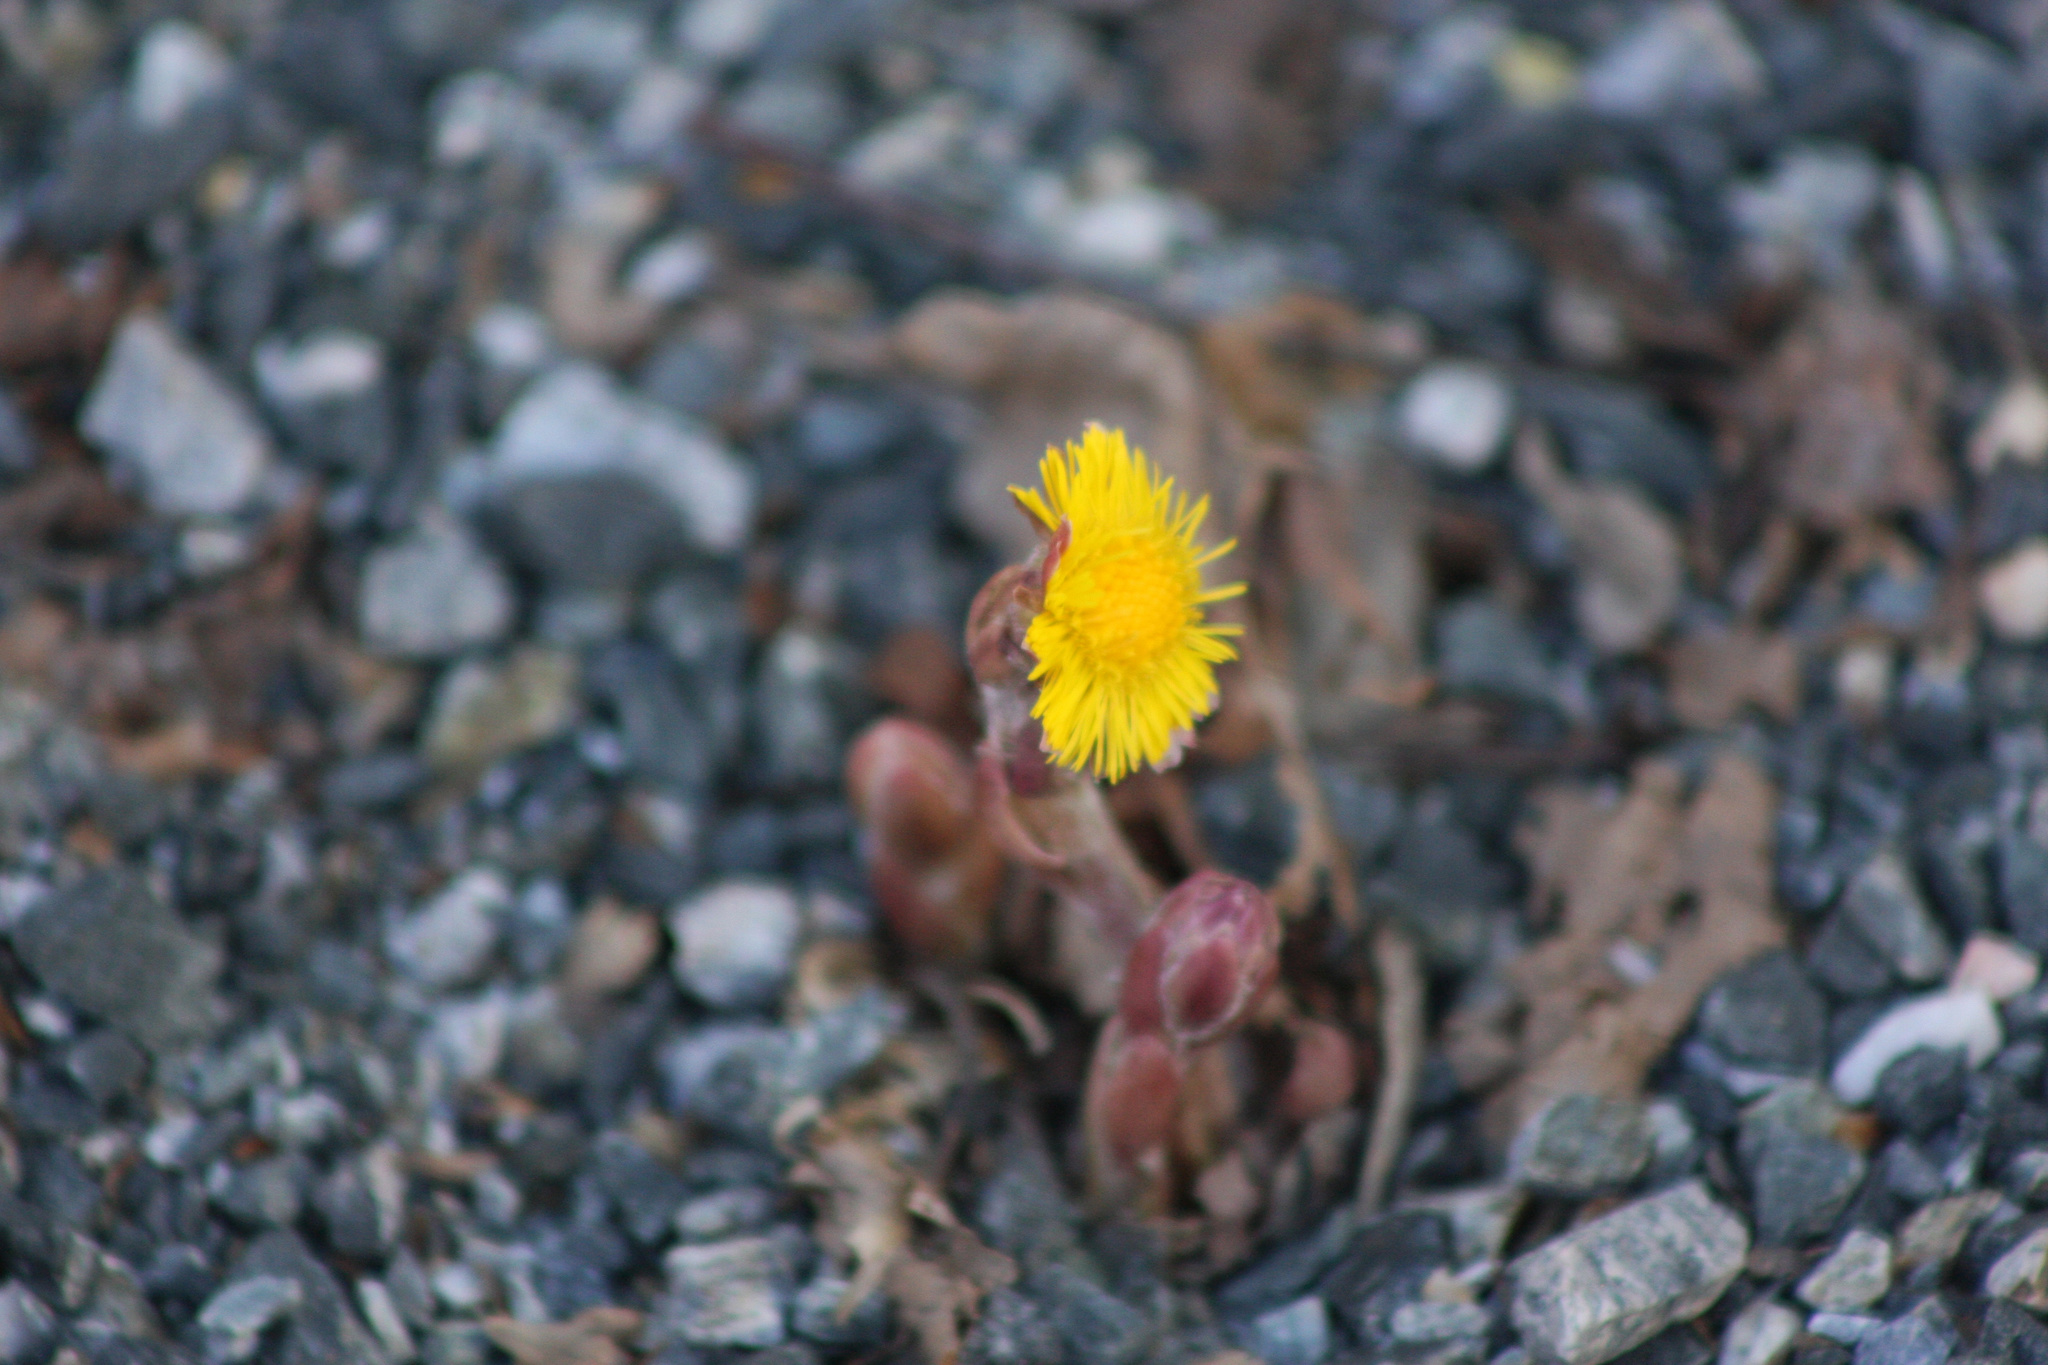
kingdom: Plantae
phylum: Tracheophyta
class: Magnoliopsida
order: Asterales
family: Asteraceae
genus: Tussilago
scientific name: Tussilago farfara
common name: Coltsfoot
